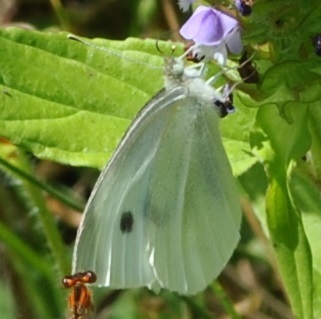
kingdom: Animalia
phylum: Arthropoda
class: Insecta
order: Lepidoptera
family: Pieridae
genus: Pieris
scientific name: Pieris rapae
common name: Small white
